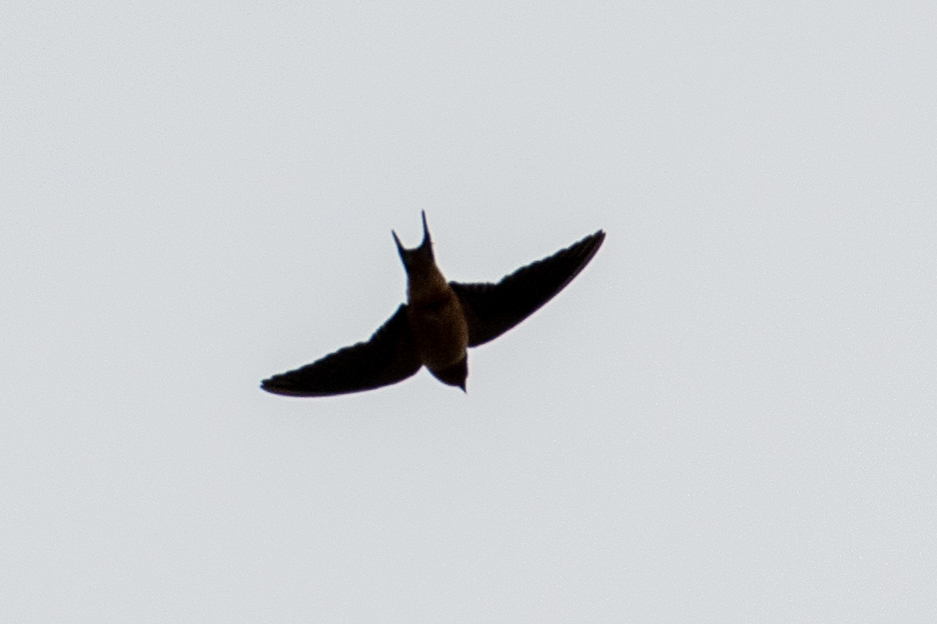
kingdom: Animalia
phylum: Chordata
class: Aves
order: Passeriformes
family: Hirundinidae
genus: Hirundo
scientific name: Hirundo rustica
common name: Barn swallow
